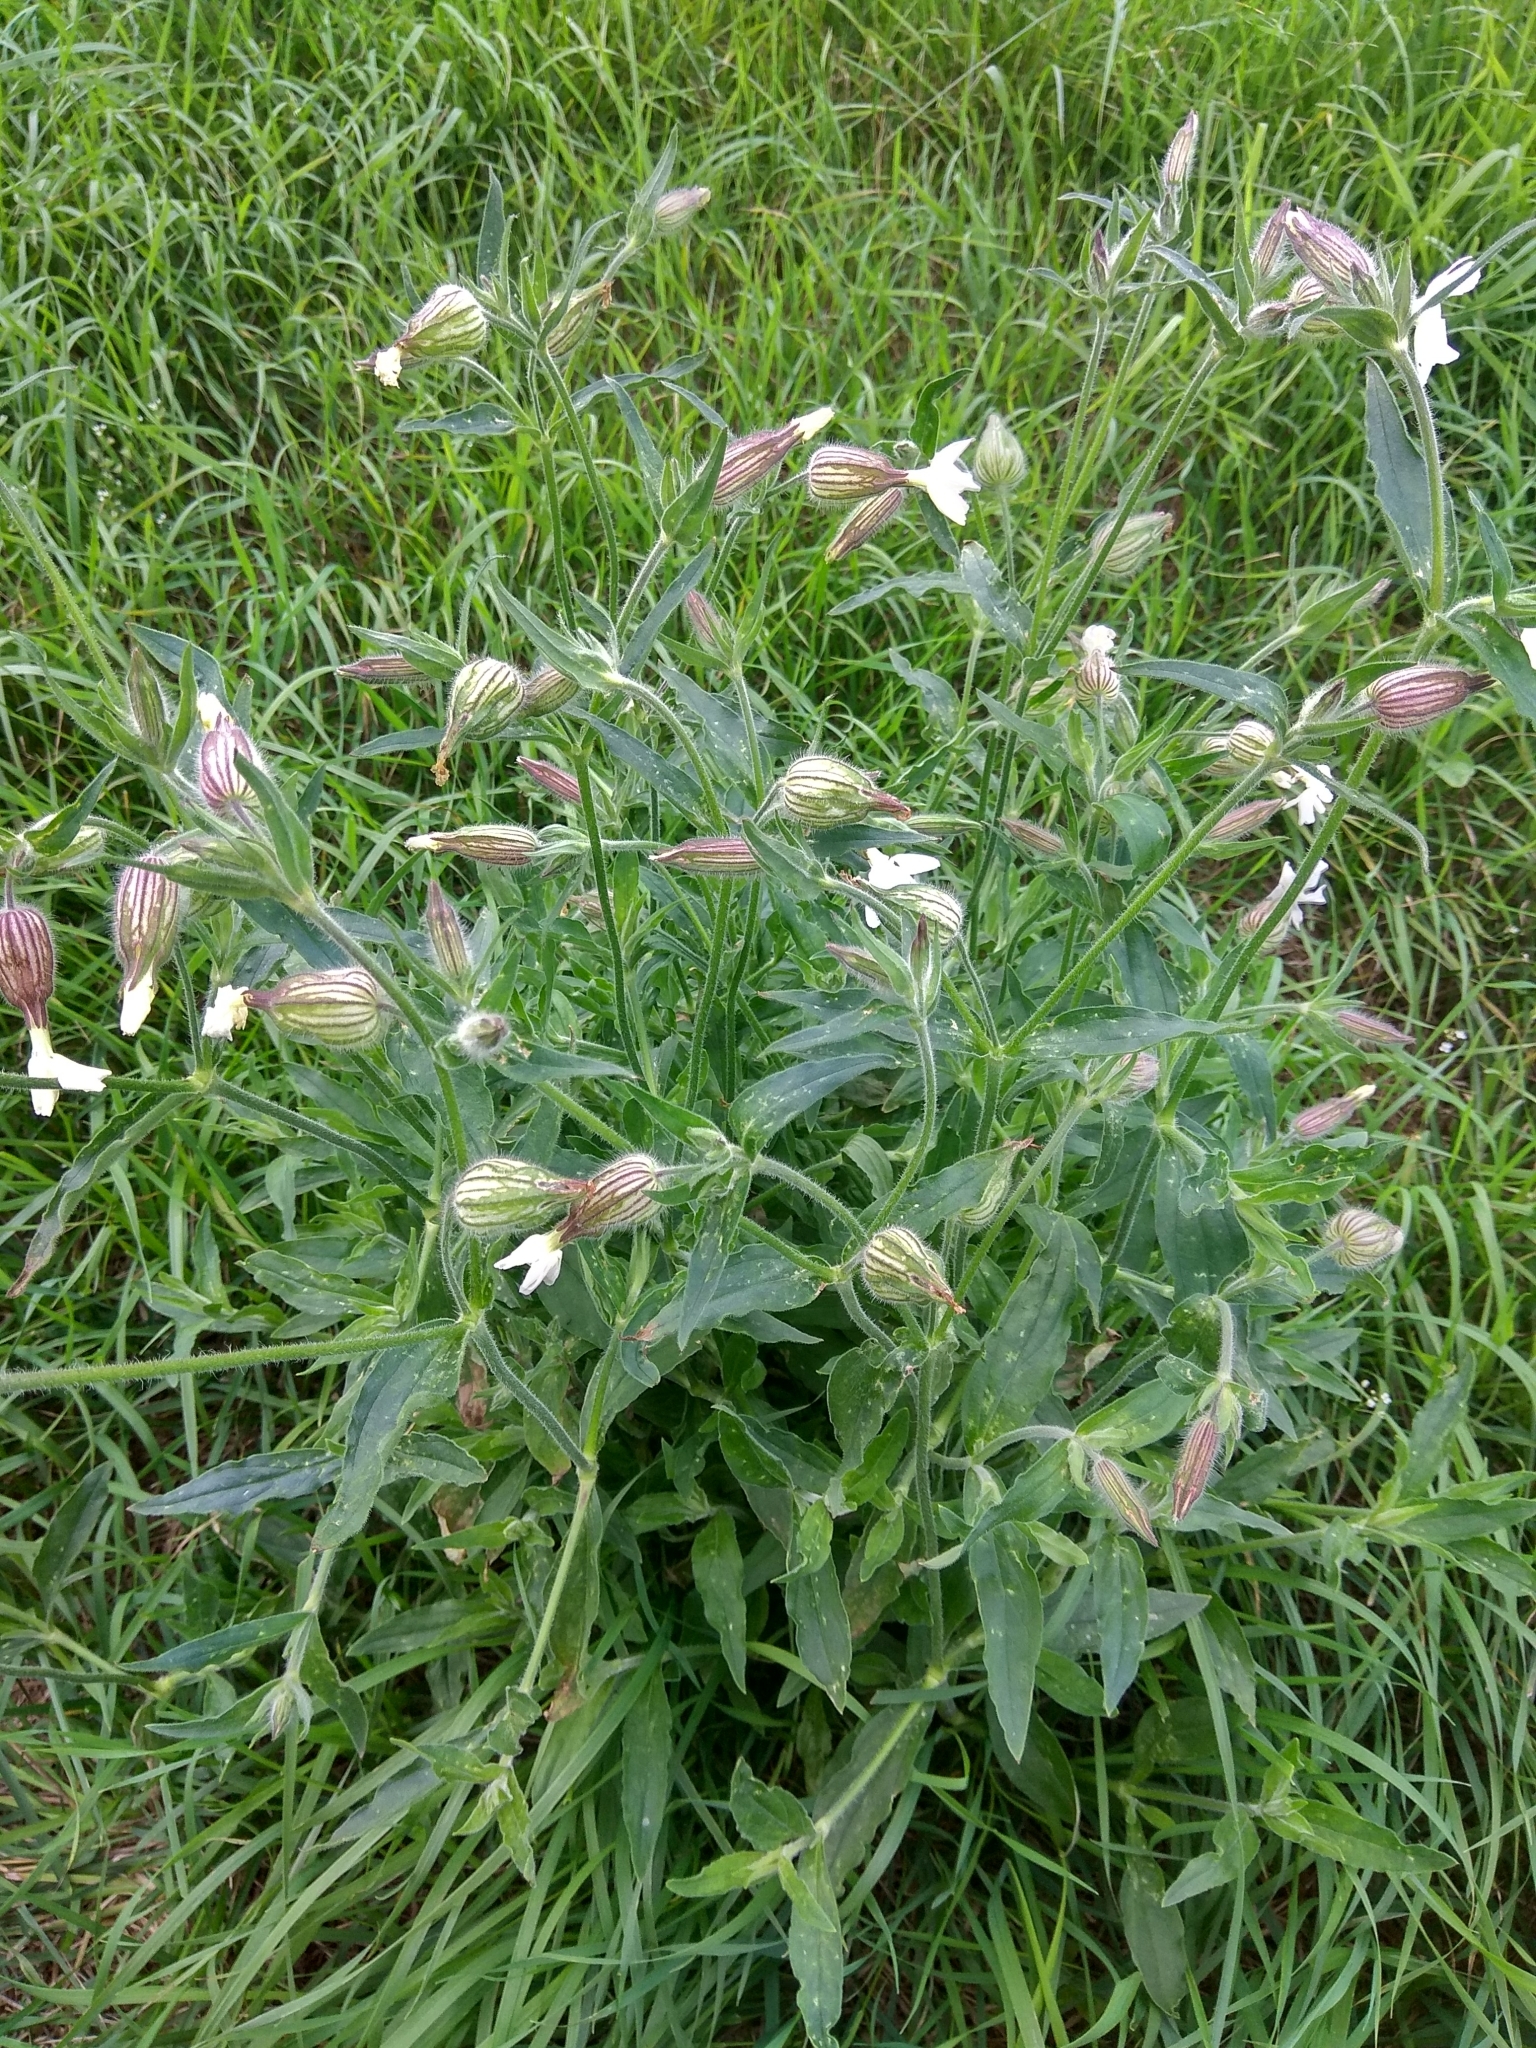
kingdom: Plantae
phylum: Tracheophyta
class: Magnoliopsida
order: Caryophyllales
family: Caryophyllaceae
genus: Silene
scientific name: Silene latifolia
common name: White campion
